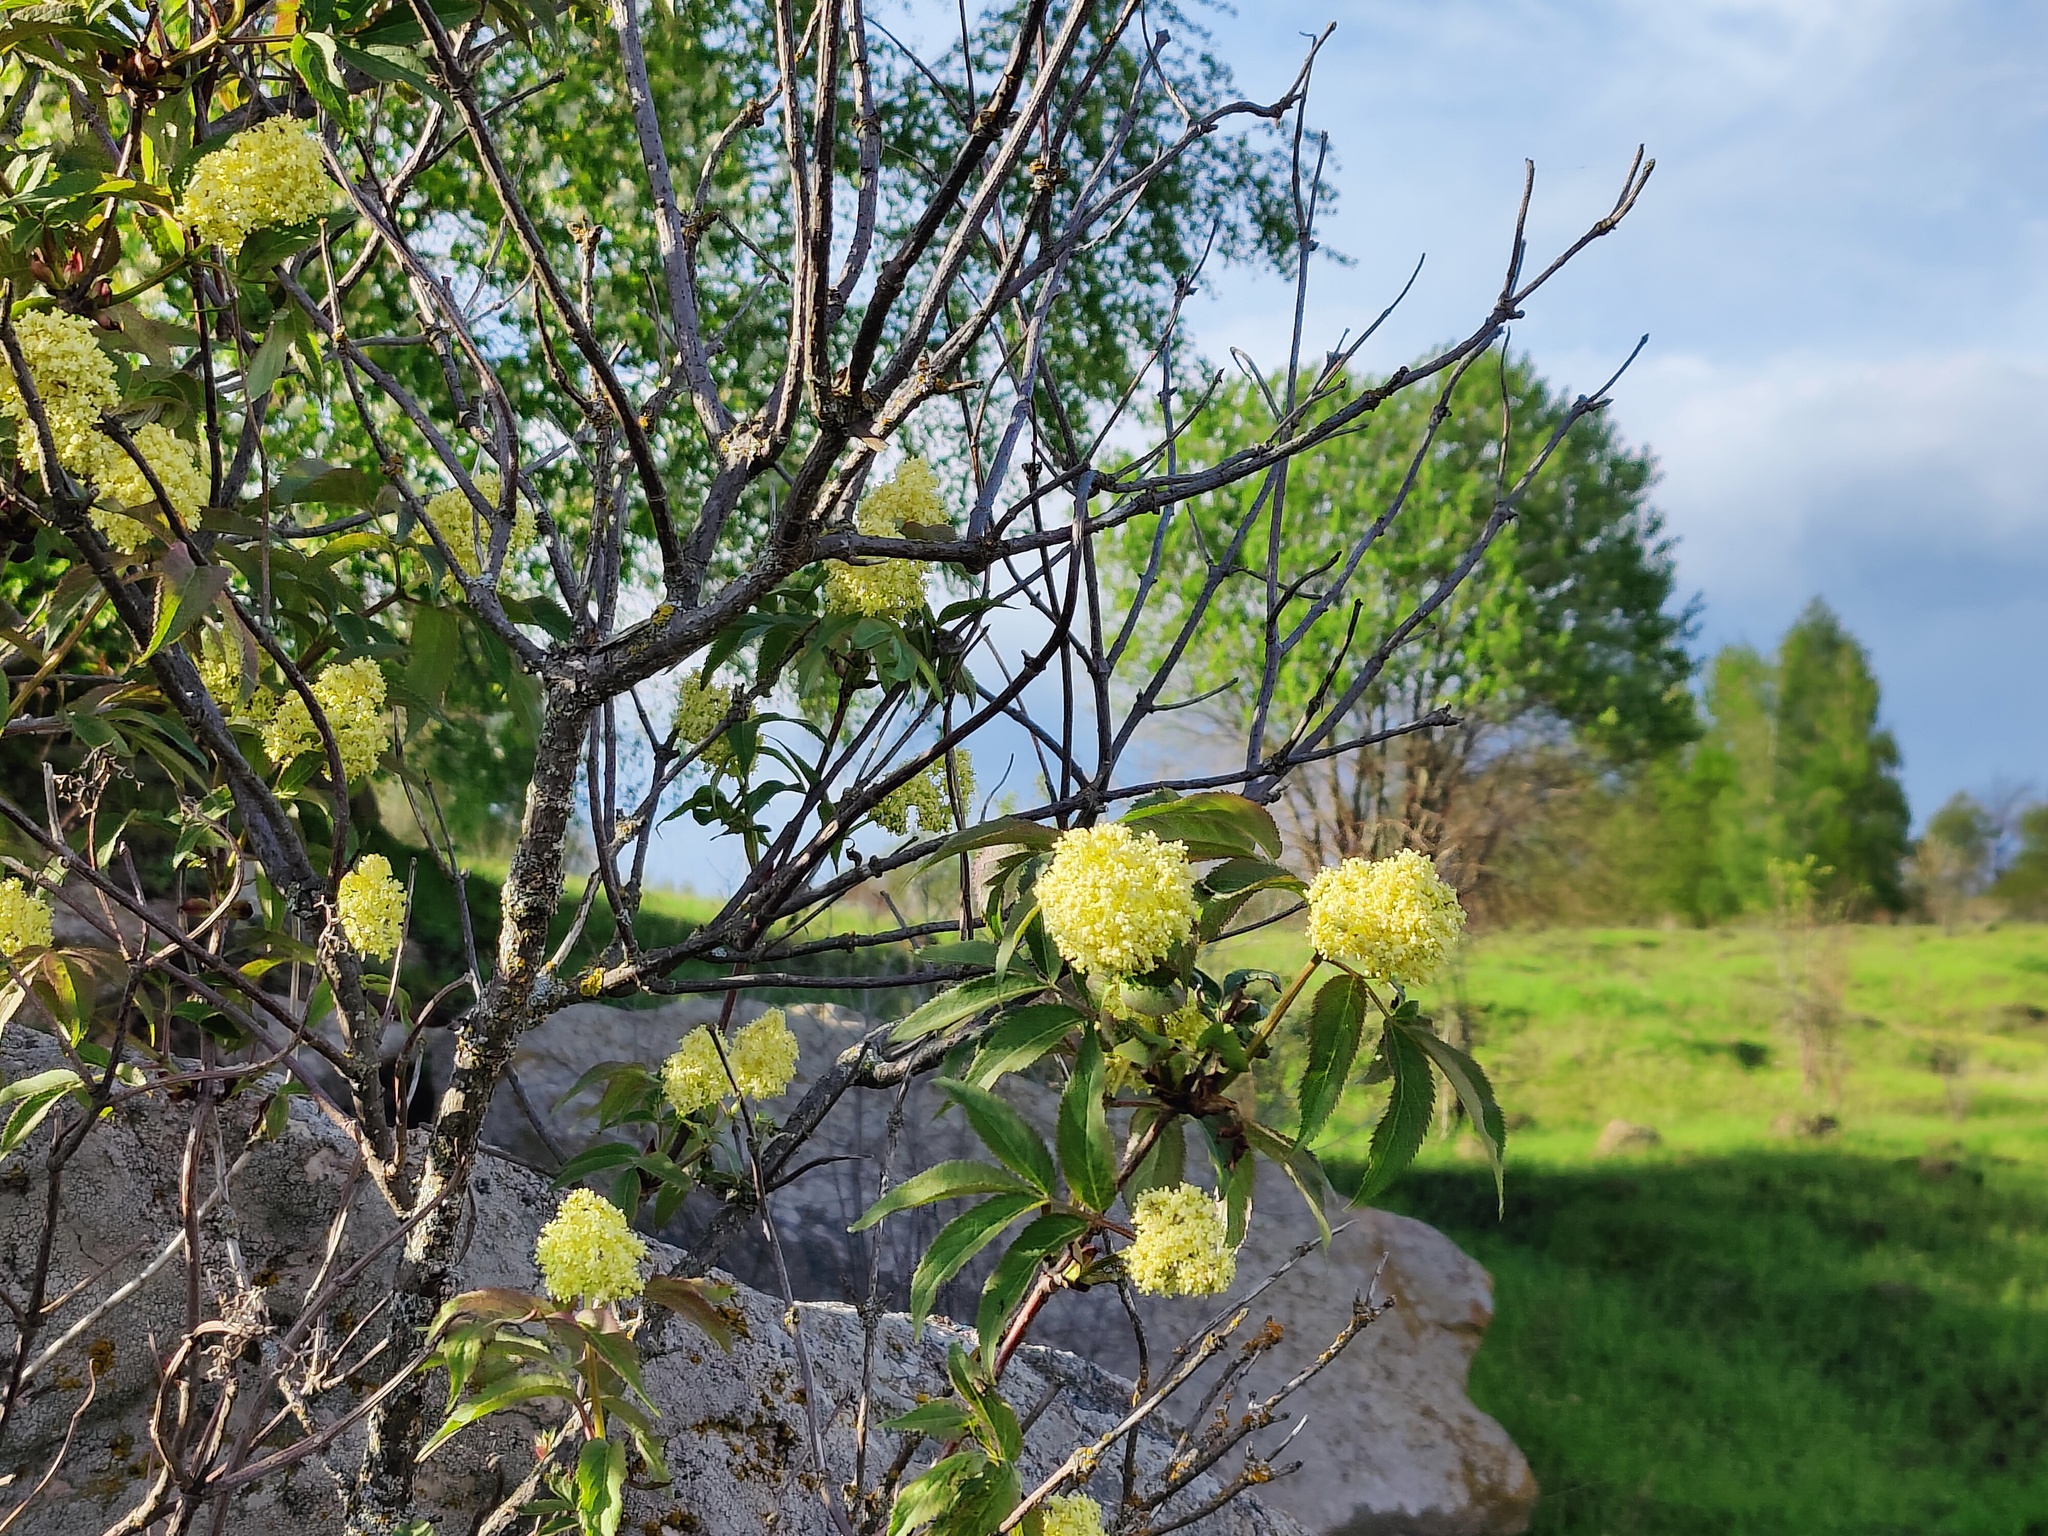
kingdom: Plantae
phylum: Tracheophyta
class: Magnoliopsida
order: Dipsacales
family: Viburnaceae
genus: Sambucus
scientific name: Sambucus racemosa
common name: Red-berried elder
